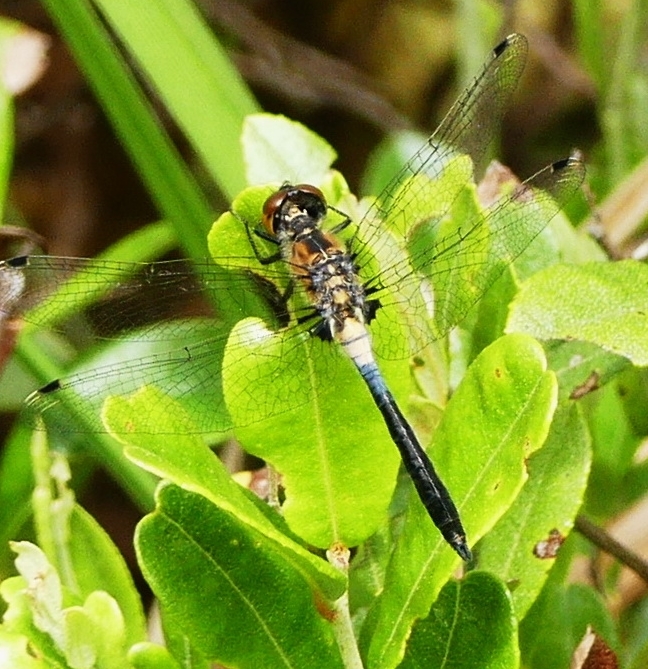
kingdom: Animalia
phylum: Arthropoda
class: Insecta
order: Odonata
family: Libellulidae
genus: Leucorrhinia
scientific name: Leucorrhinia frigida
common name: Frosted whiteface
